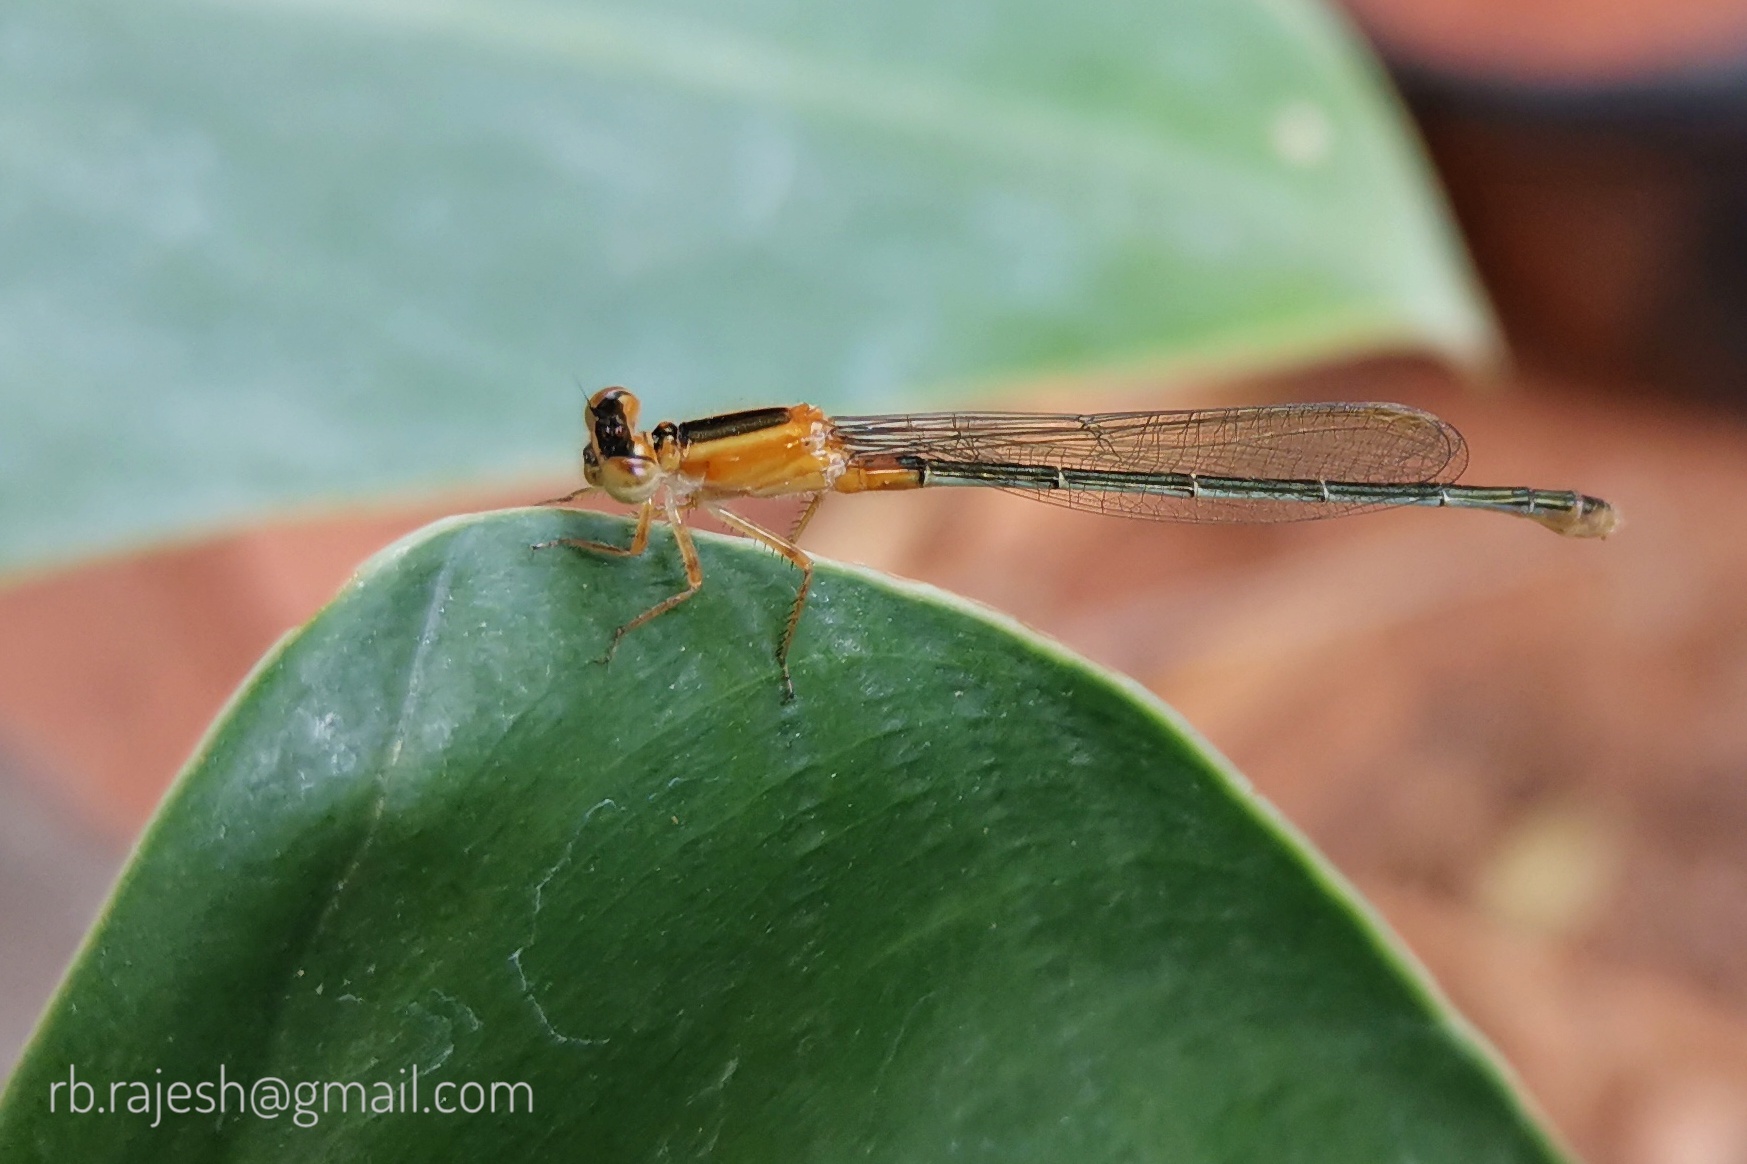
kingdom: Animalia
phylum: Arthropoda
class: Insecta
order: Odonata
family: Coenagrionidae
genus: Ischnura
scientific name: Ischnura senegalensis
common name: Tropical bluetail
